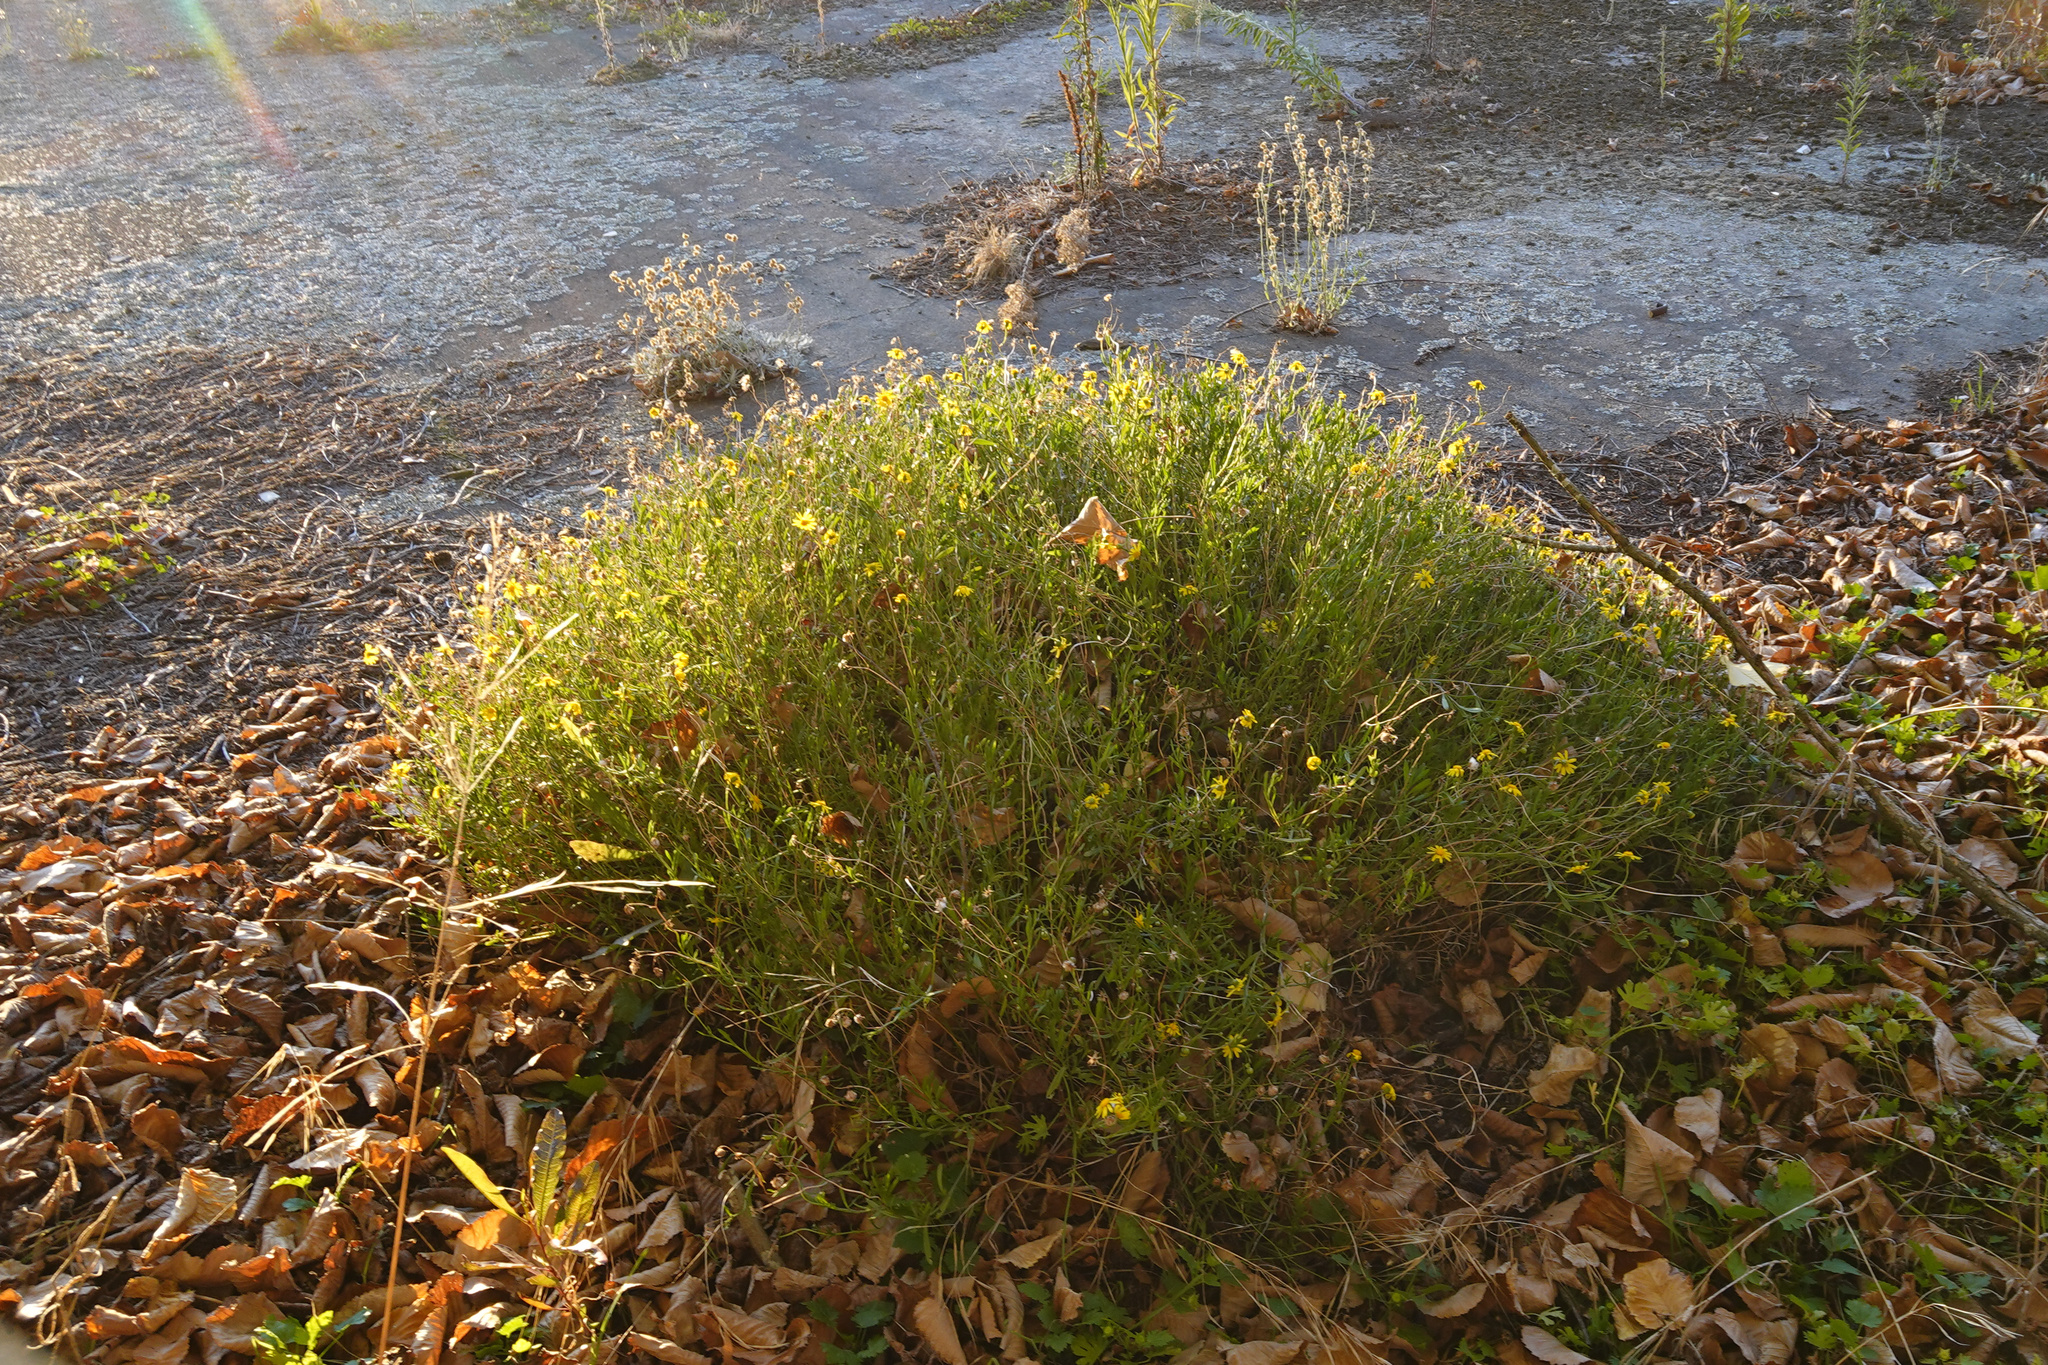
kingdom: Plantae
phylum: Tracheophyta
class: Magnoliopsida
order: Asterales
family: Asteraceae
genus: Senecio
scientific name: Senecio skirrhodon
